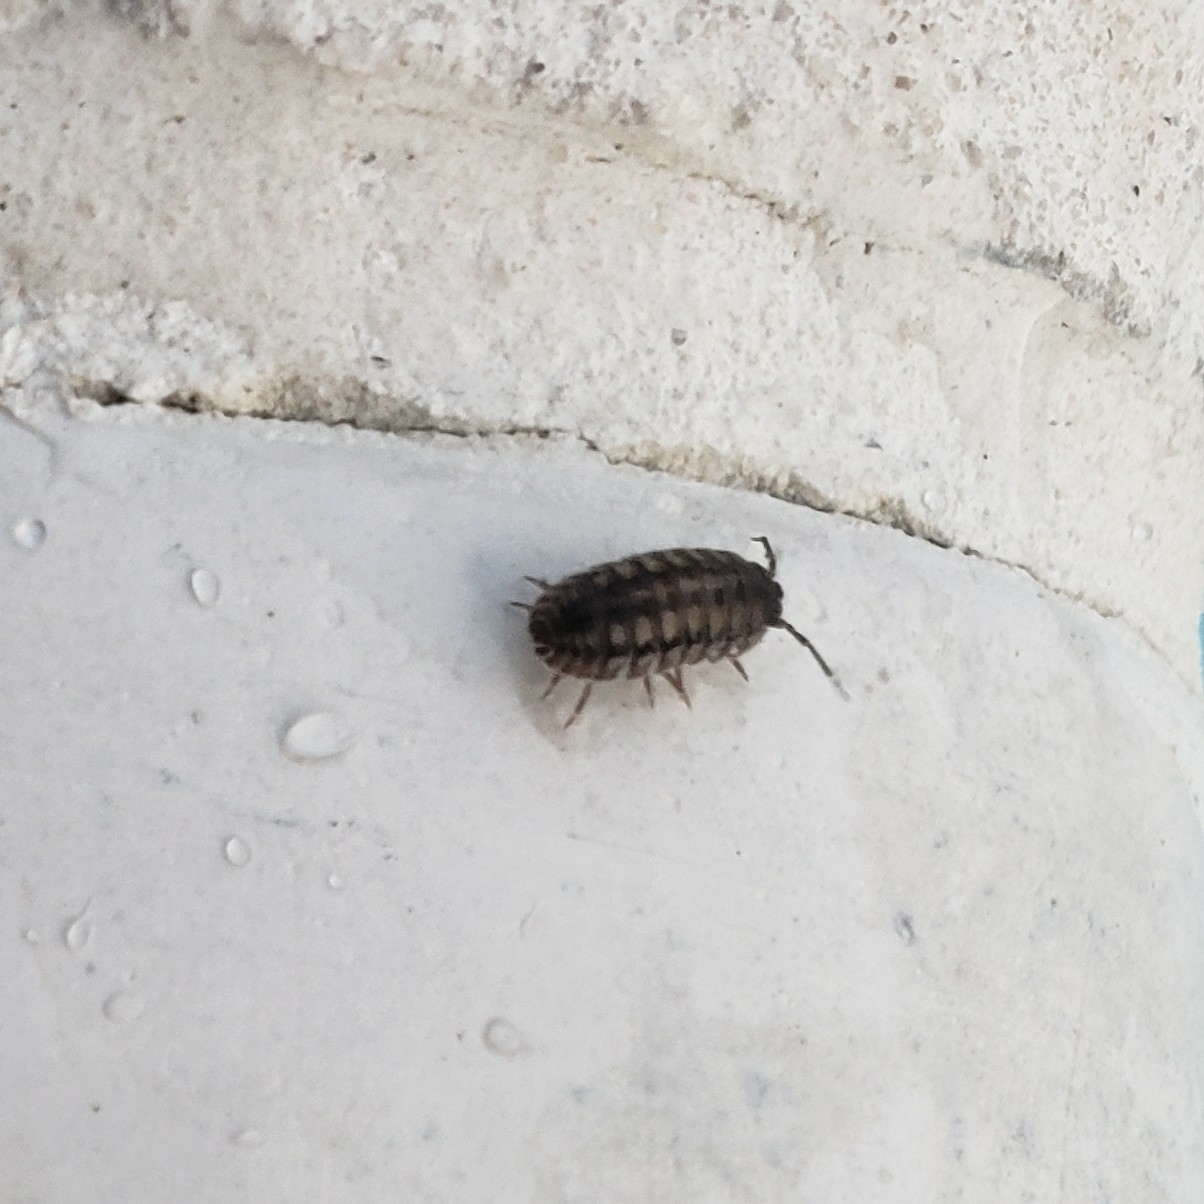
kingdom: Animalia
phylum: Arthropoda
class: Malacostraca
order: Isopoda
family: Armadillidiidae
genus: Armadillidium
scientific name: Armadillidium nasatum
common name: Isopod
